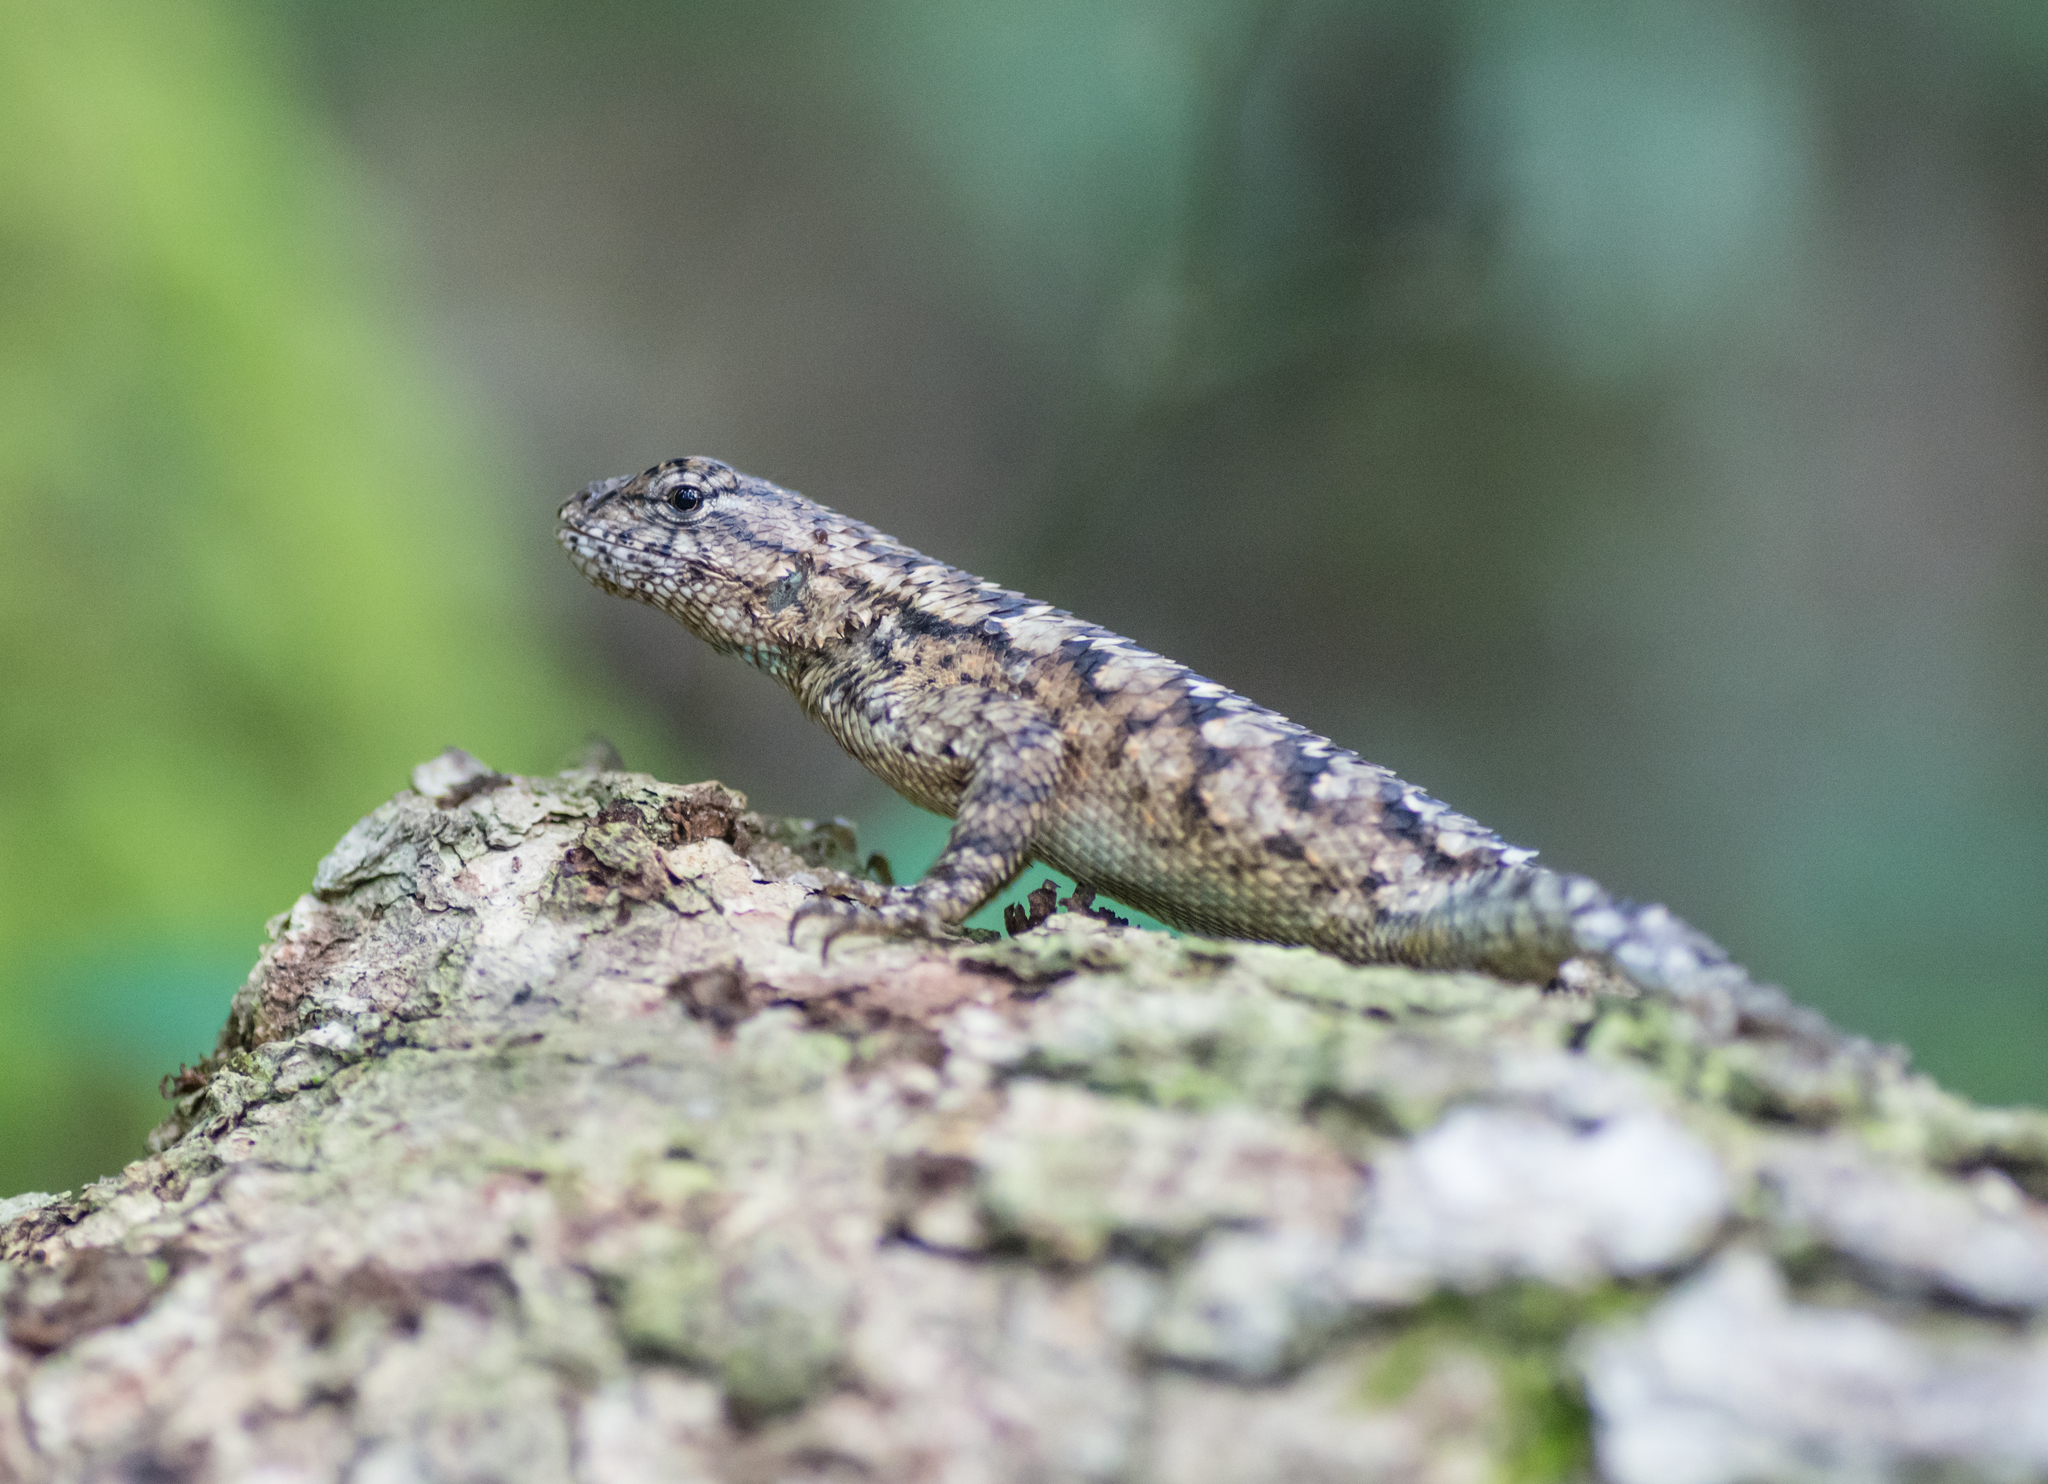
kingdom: Animalia
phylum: Chordata
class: Squamata
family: Phrynosomatidae
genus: Sceloporus
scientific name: Sceloporus undulatus
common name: Eastern fence lizard
